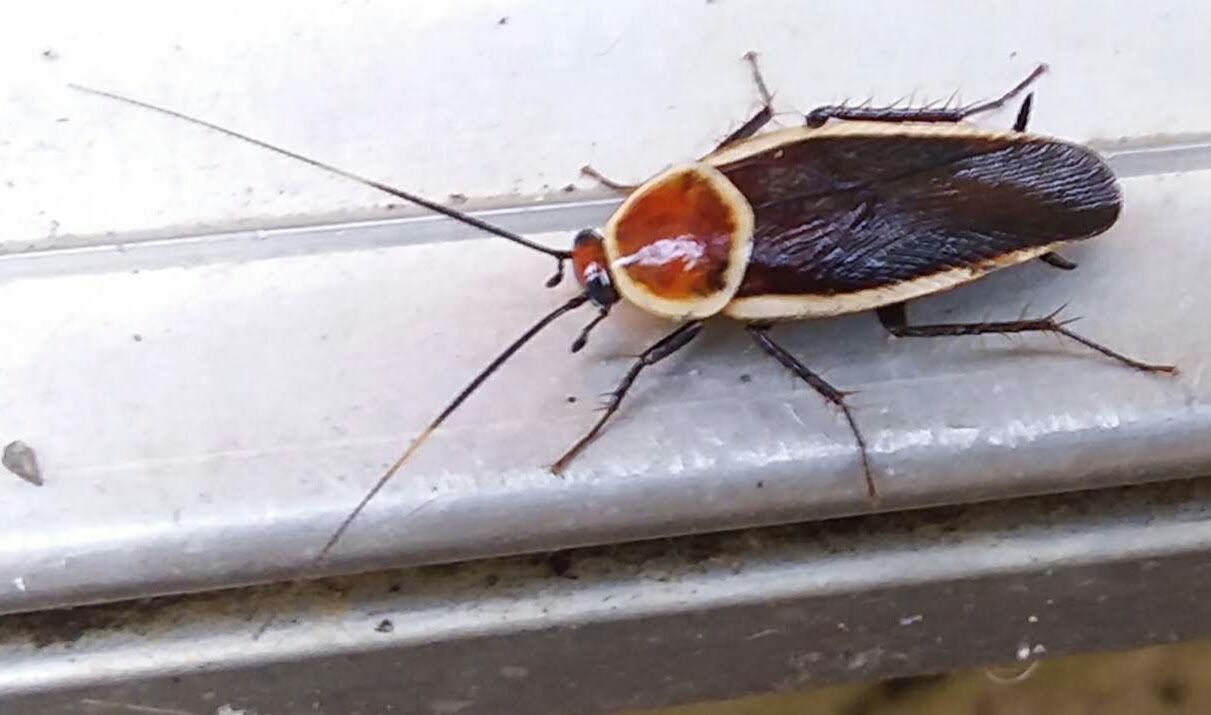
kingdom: Animalia
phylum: Arthropoda
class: Insecta
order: Blattodea
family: Ectobiidae
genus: Pseudomops
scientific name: Pseudomops septentrionalis
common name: Pale-bordered field cockroach
